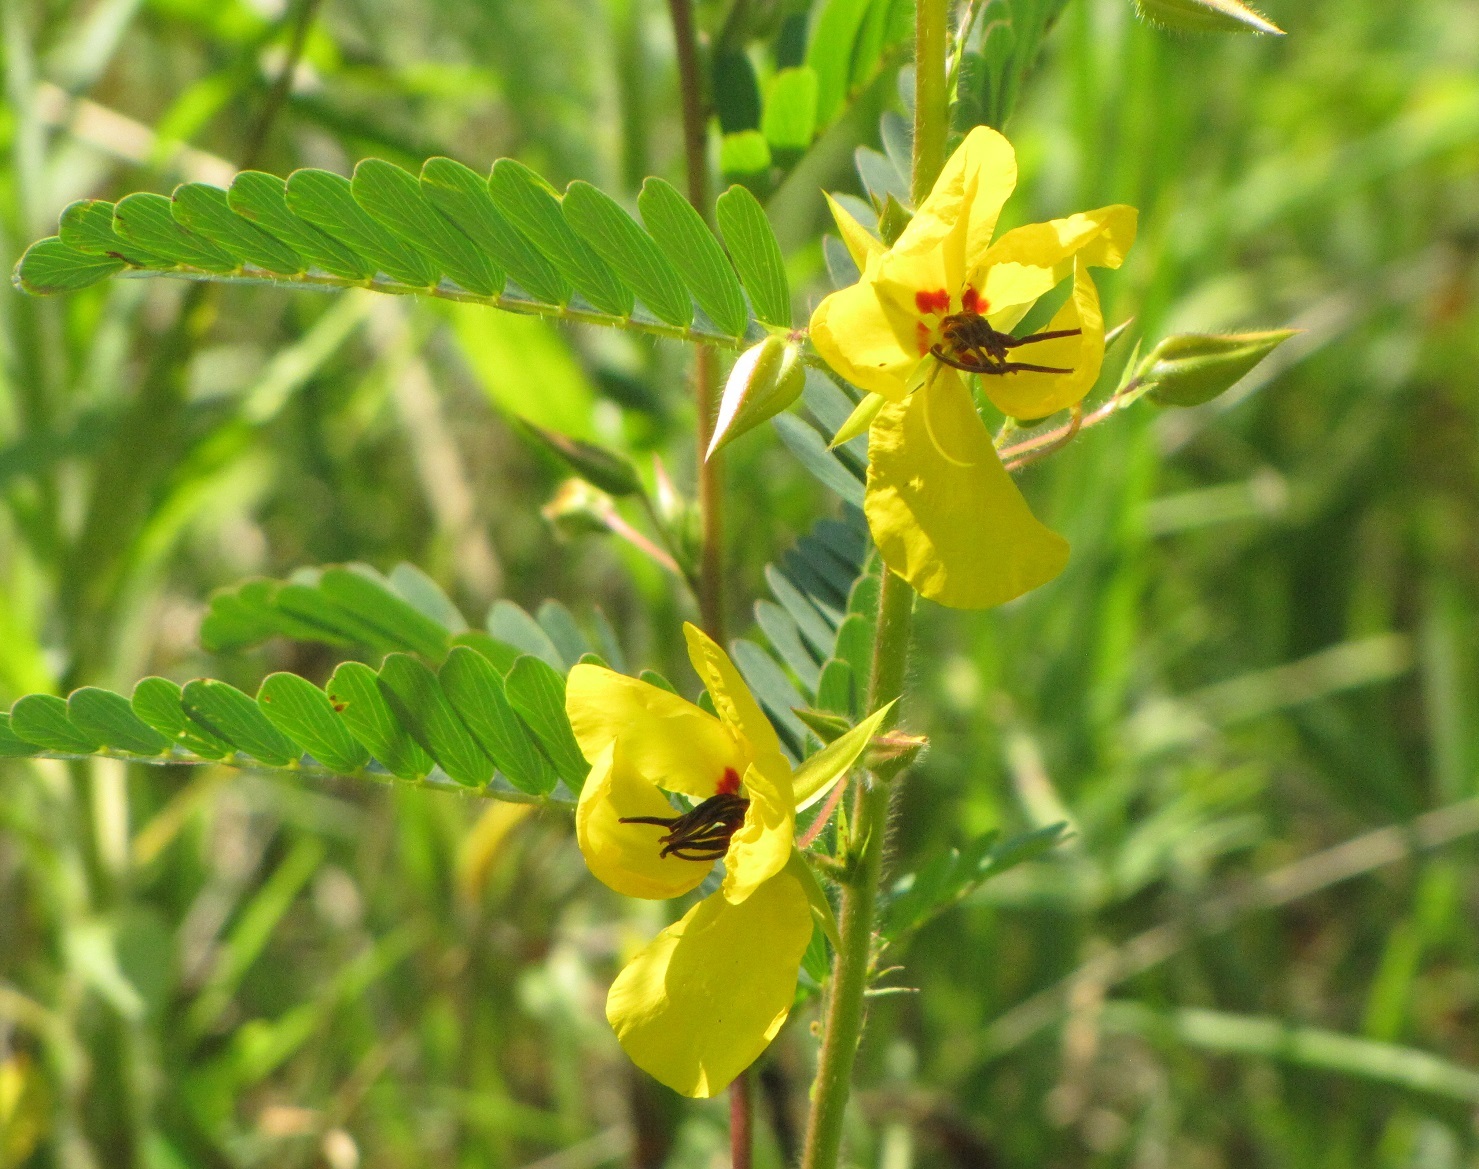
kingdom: Plantae
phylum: Tracheophyta
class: Magnoliopsida
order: Fabales
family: Fabaceae
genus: Chamaecrista
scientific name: Chamaecrista fasciculata
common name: Golden cassia
